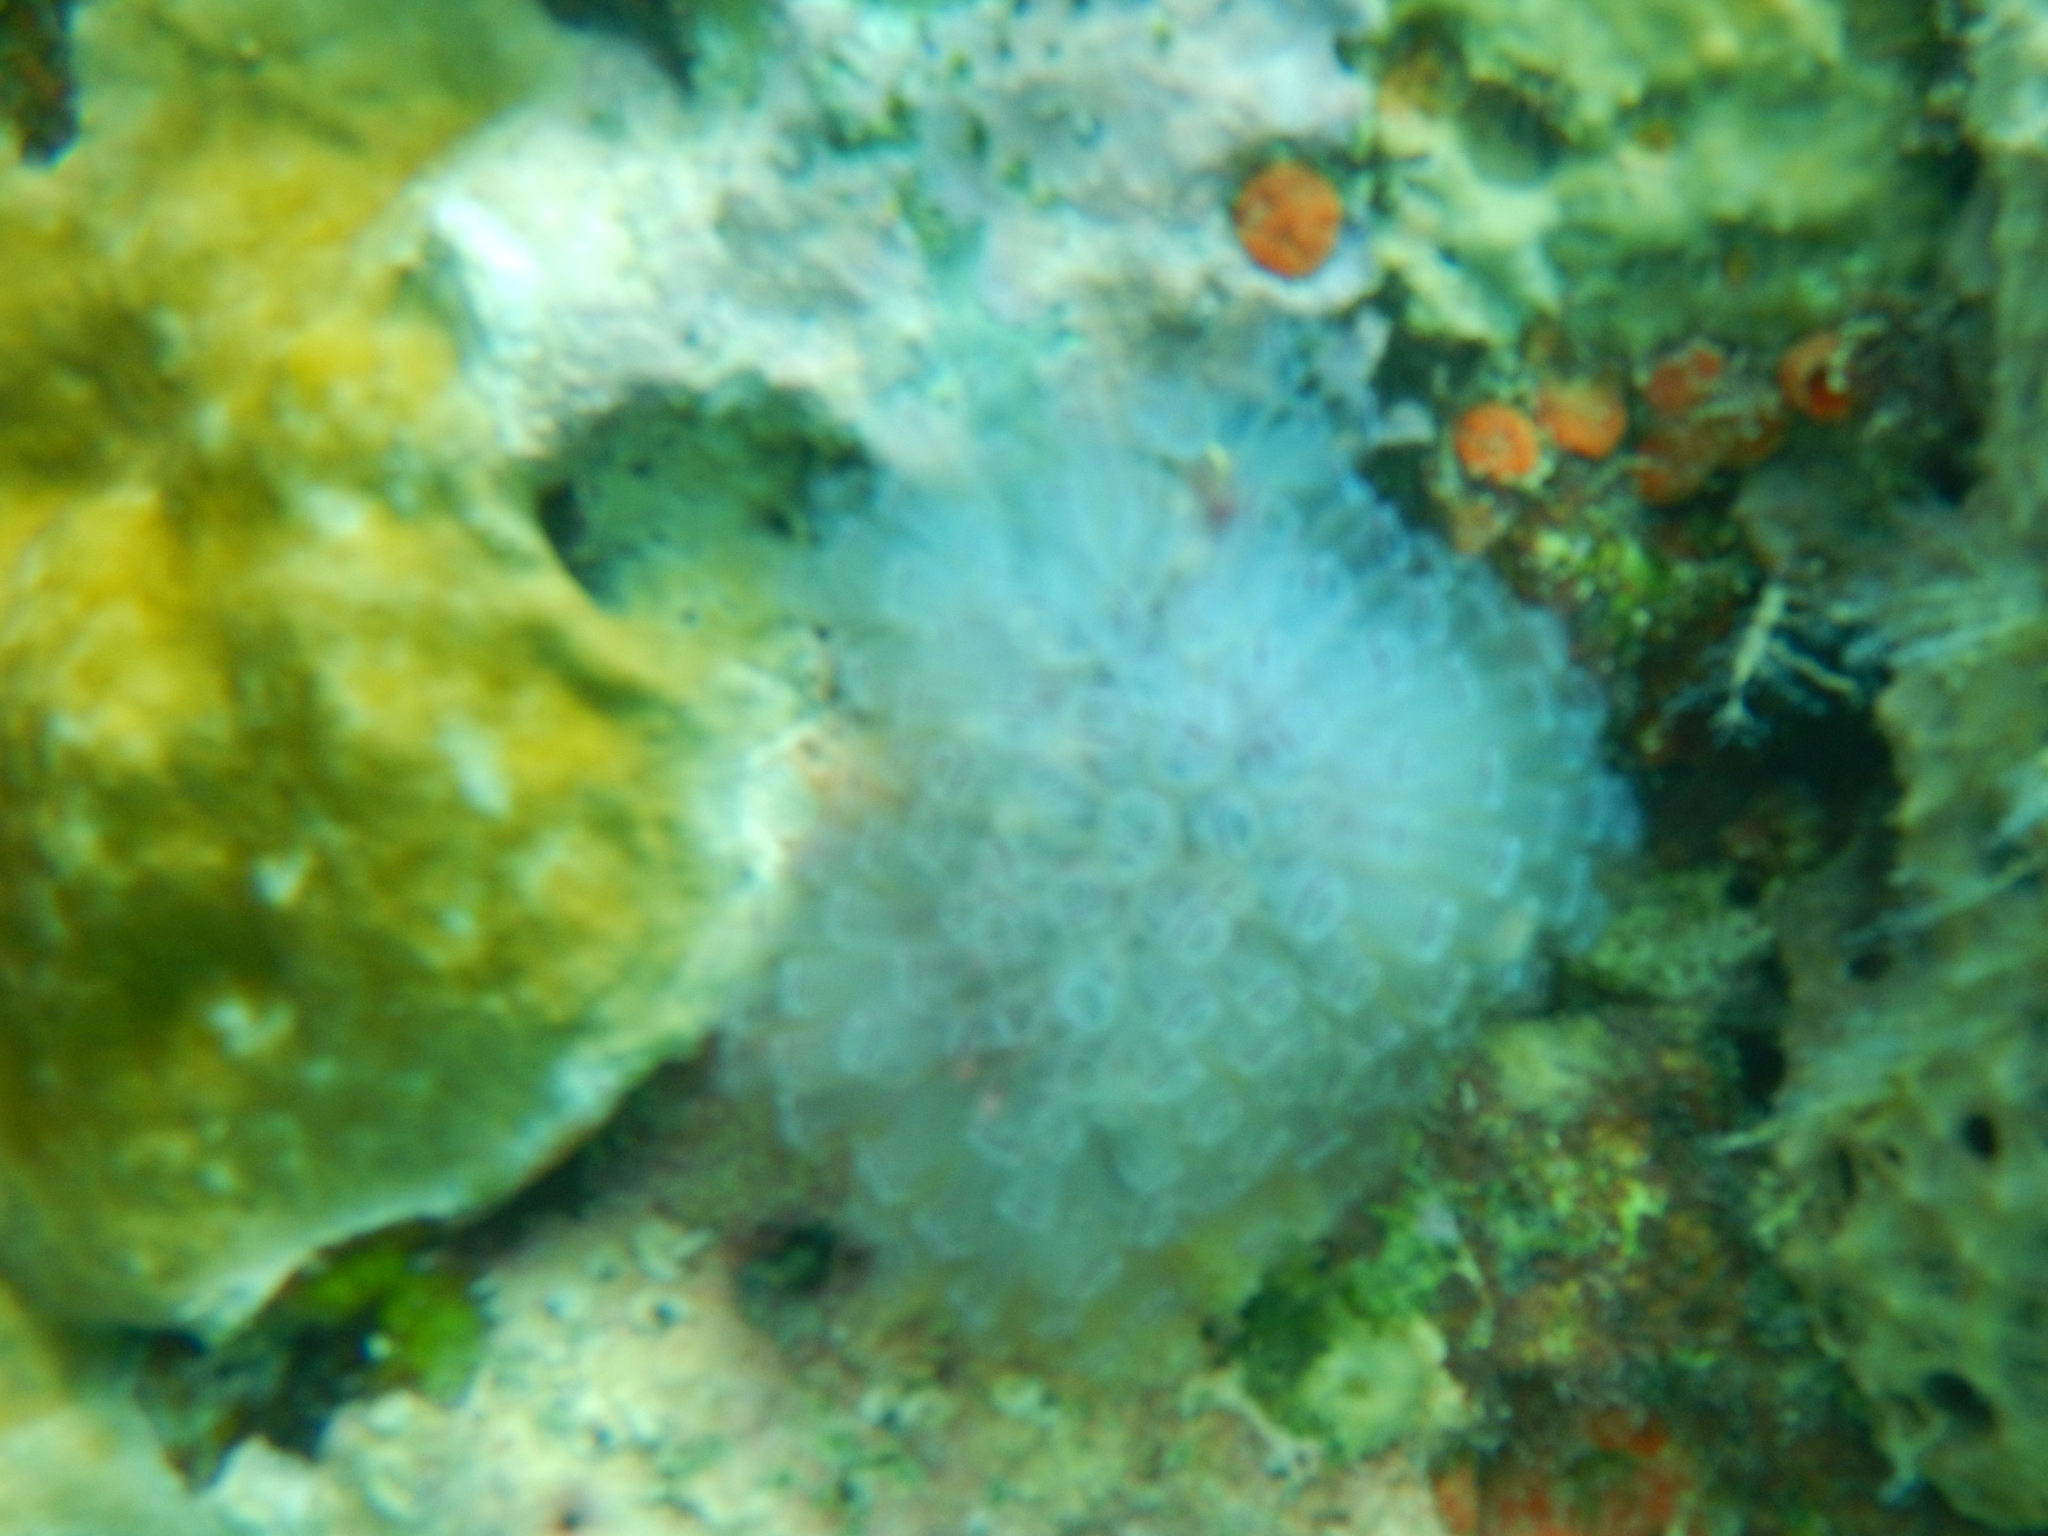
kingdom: Animalia
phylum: Chordata
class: Ascidiacea
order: Aplousobranchia
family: Clavelinidae
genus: Clavelina
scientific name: Clavelina picta
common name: Painted tunicate
